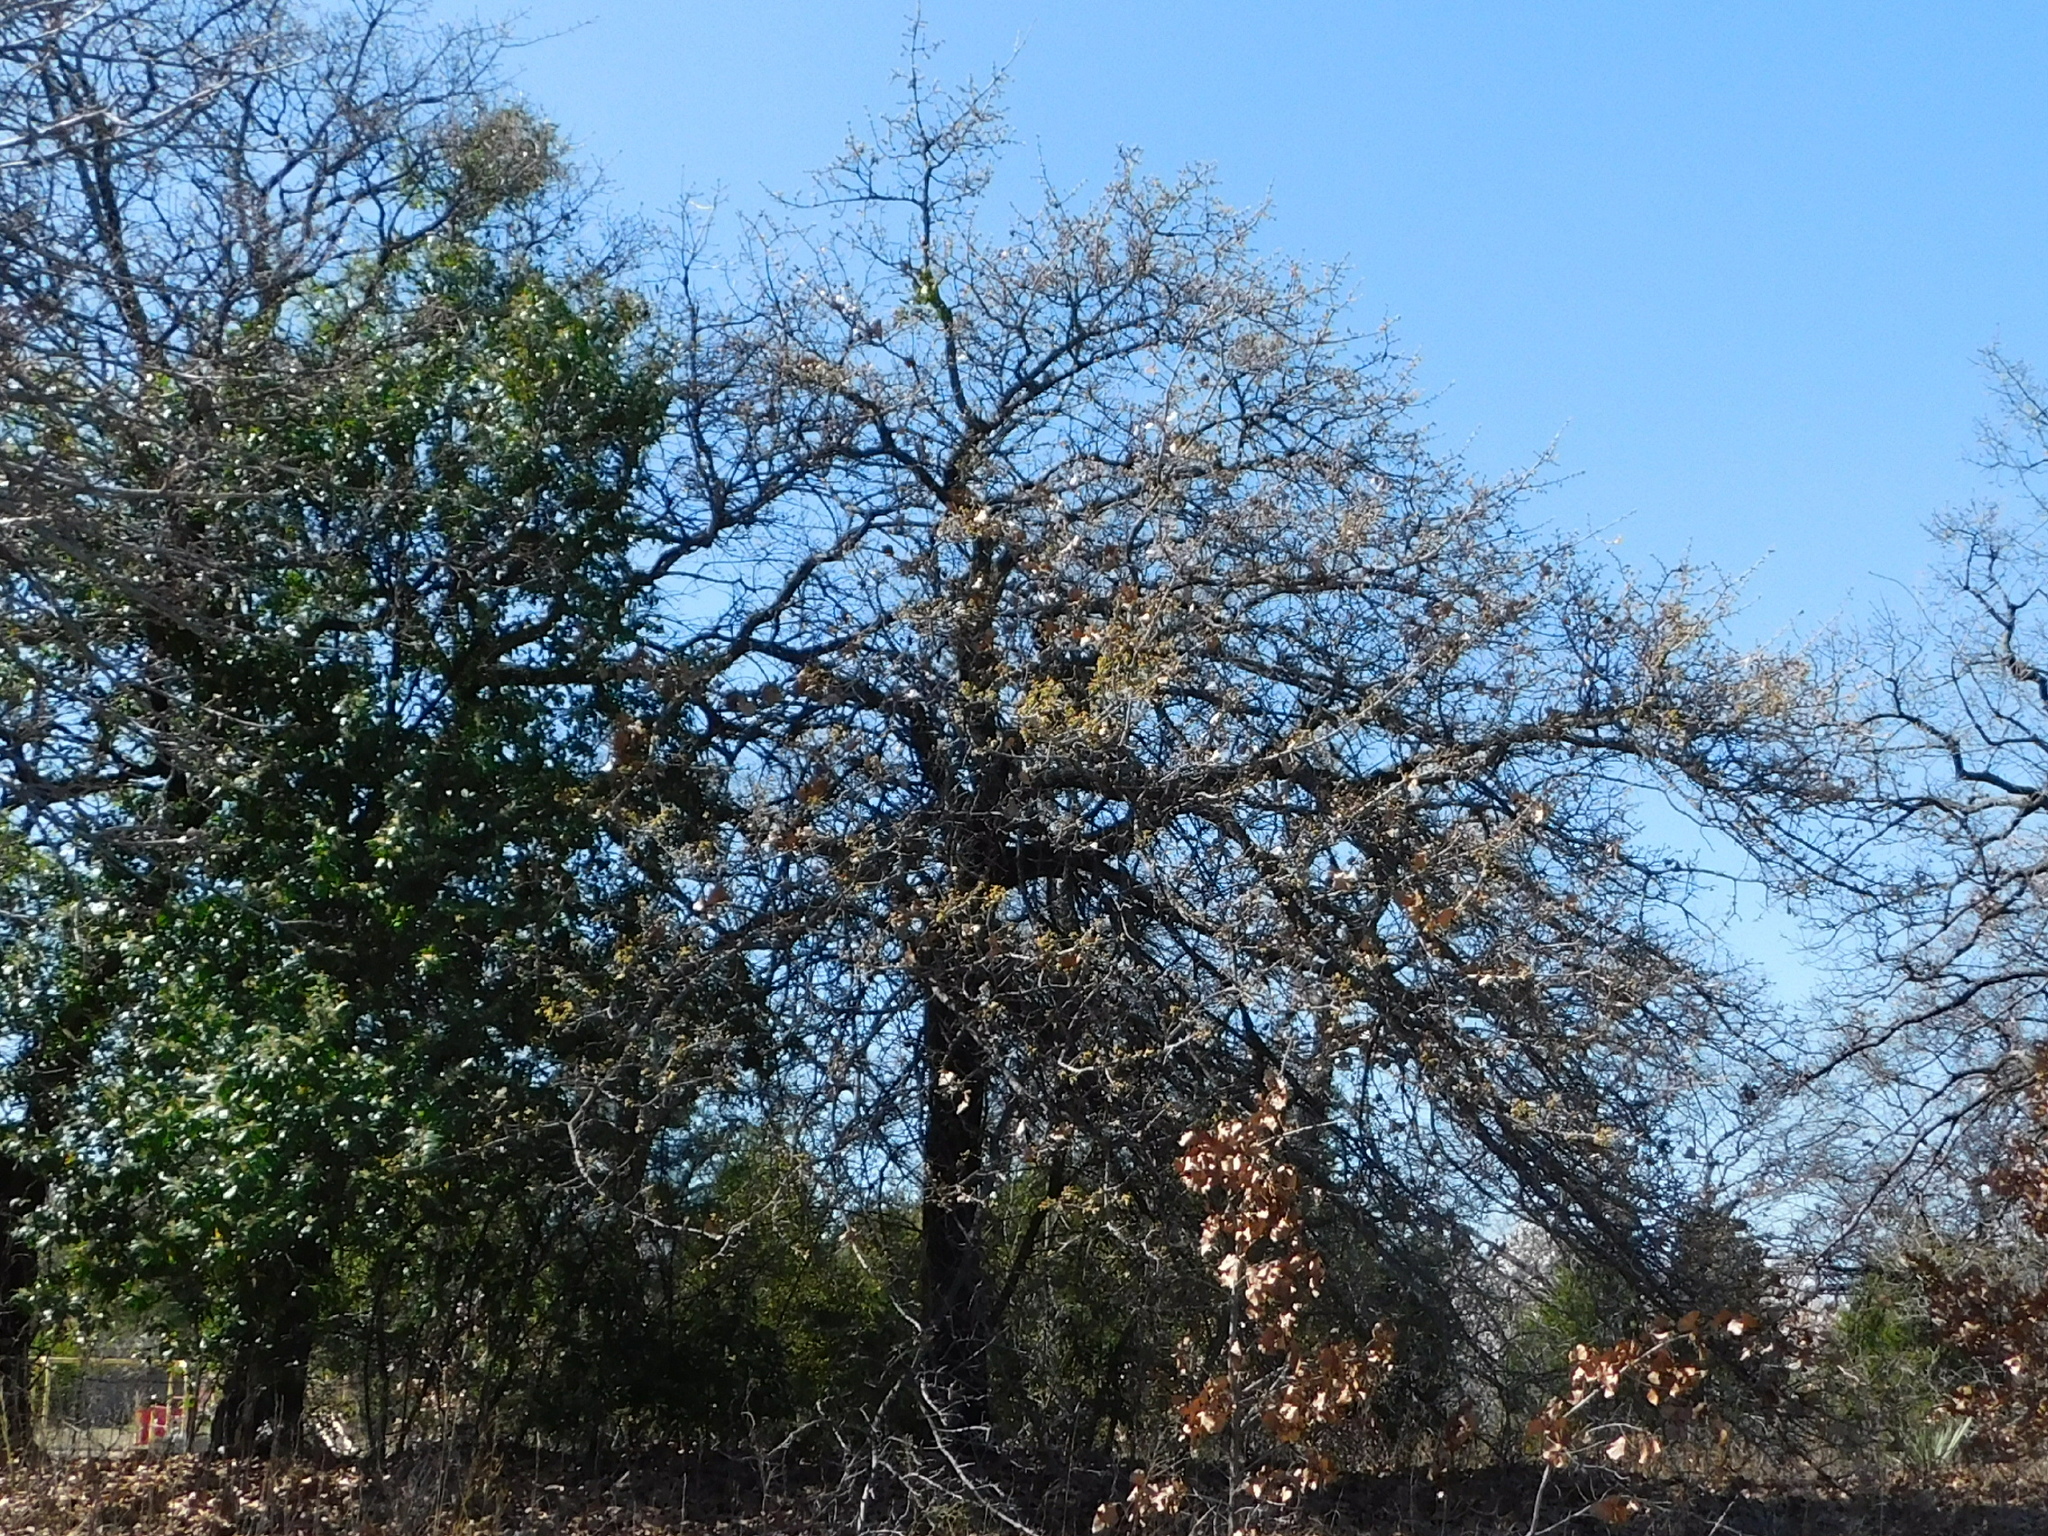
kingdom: Plantae
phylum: Tracheophyta
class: Magnoliopsida
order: Fagales
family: Fagaceae
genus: Quercus
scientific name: Quercus marilandica
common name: Blackjack oak
